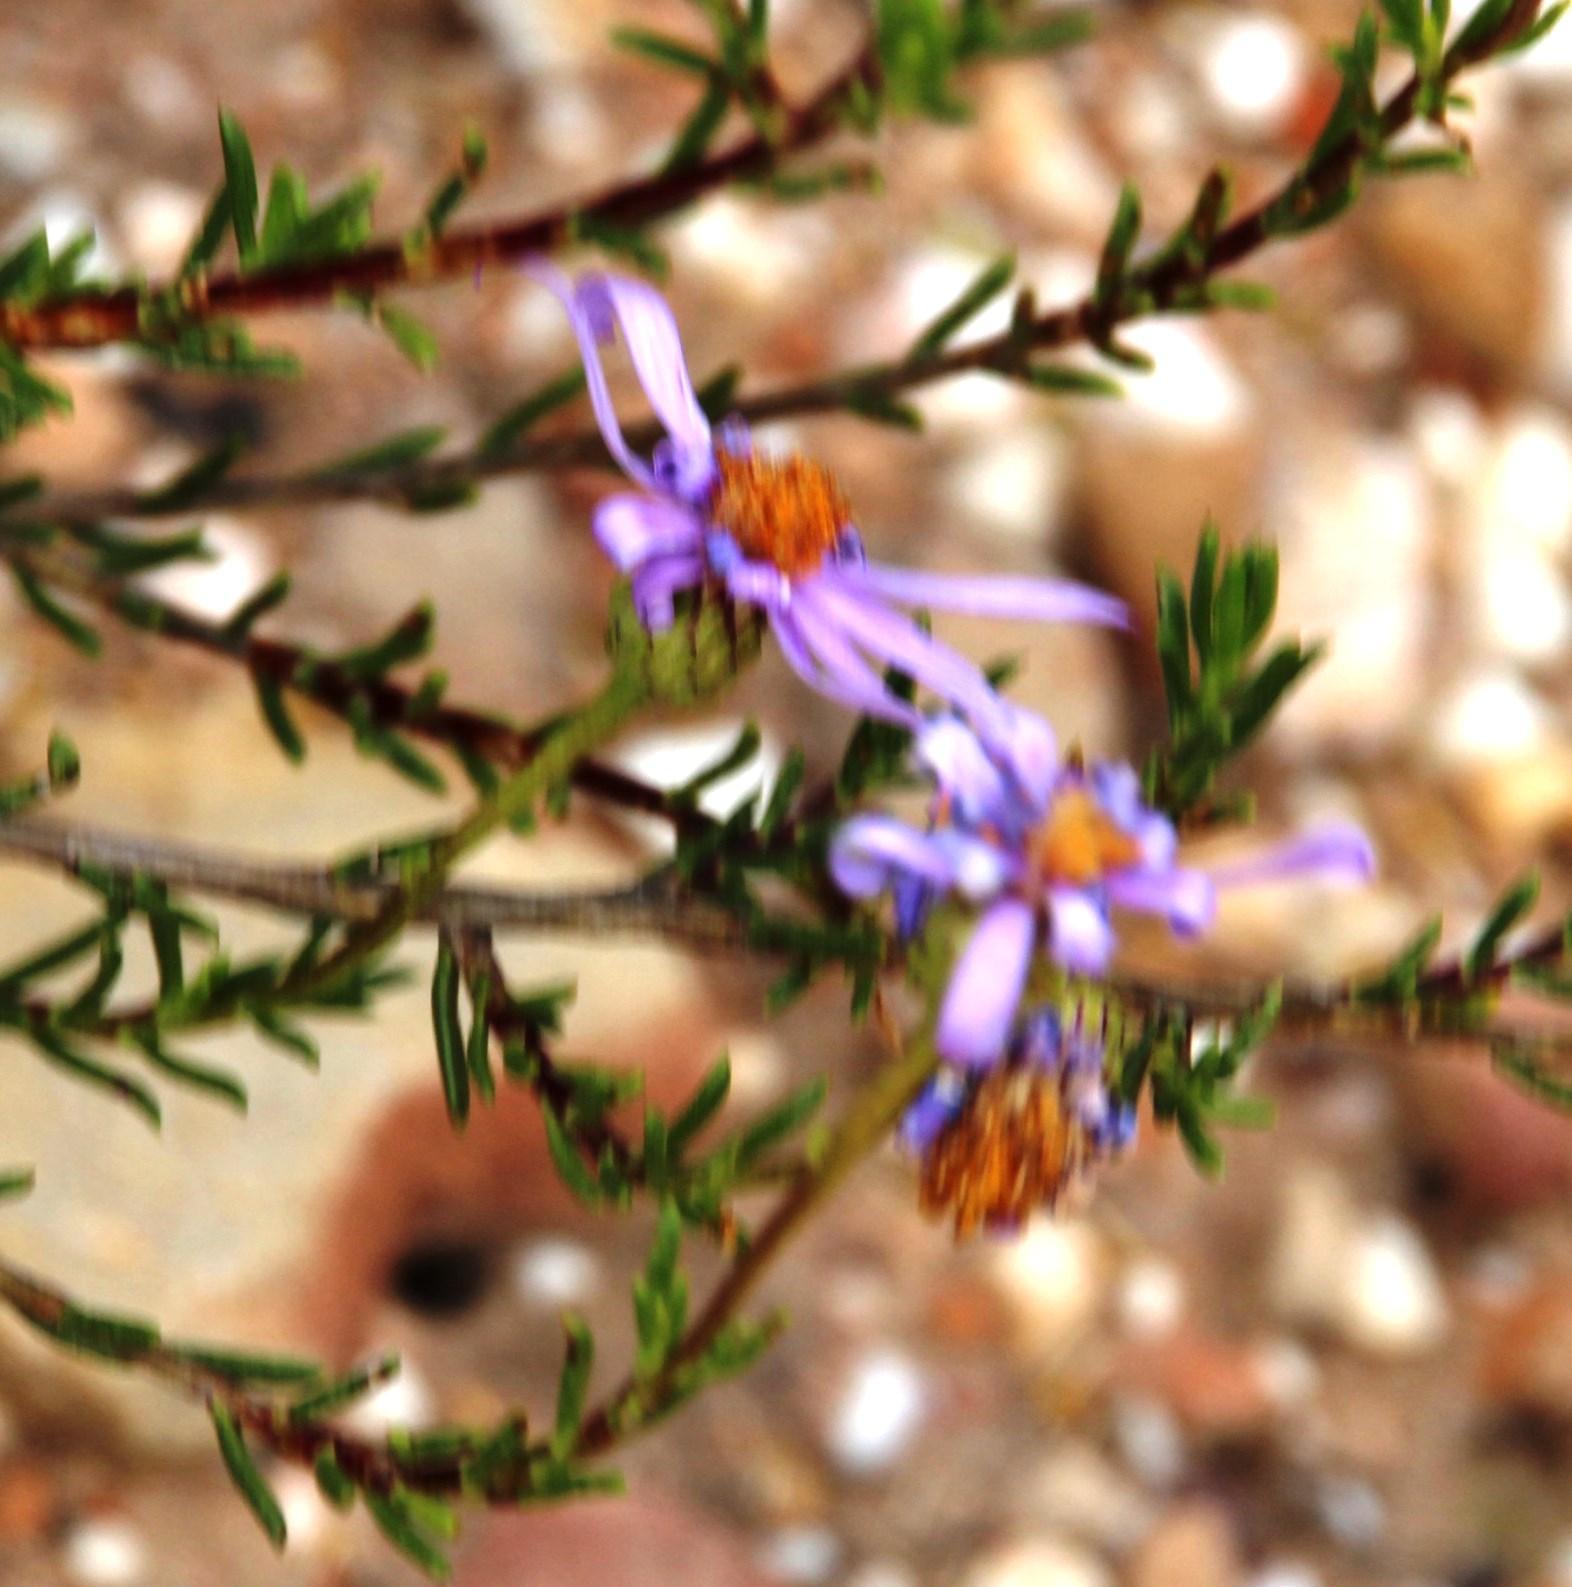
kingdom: Plantae
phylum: Tracheophyta
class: Magnoliopsida
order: Asterales
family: Asteraceae
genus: Felicia
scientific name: Felicia filifolia
